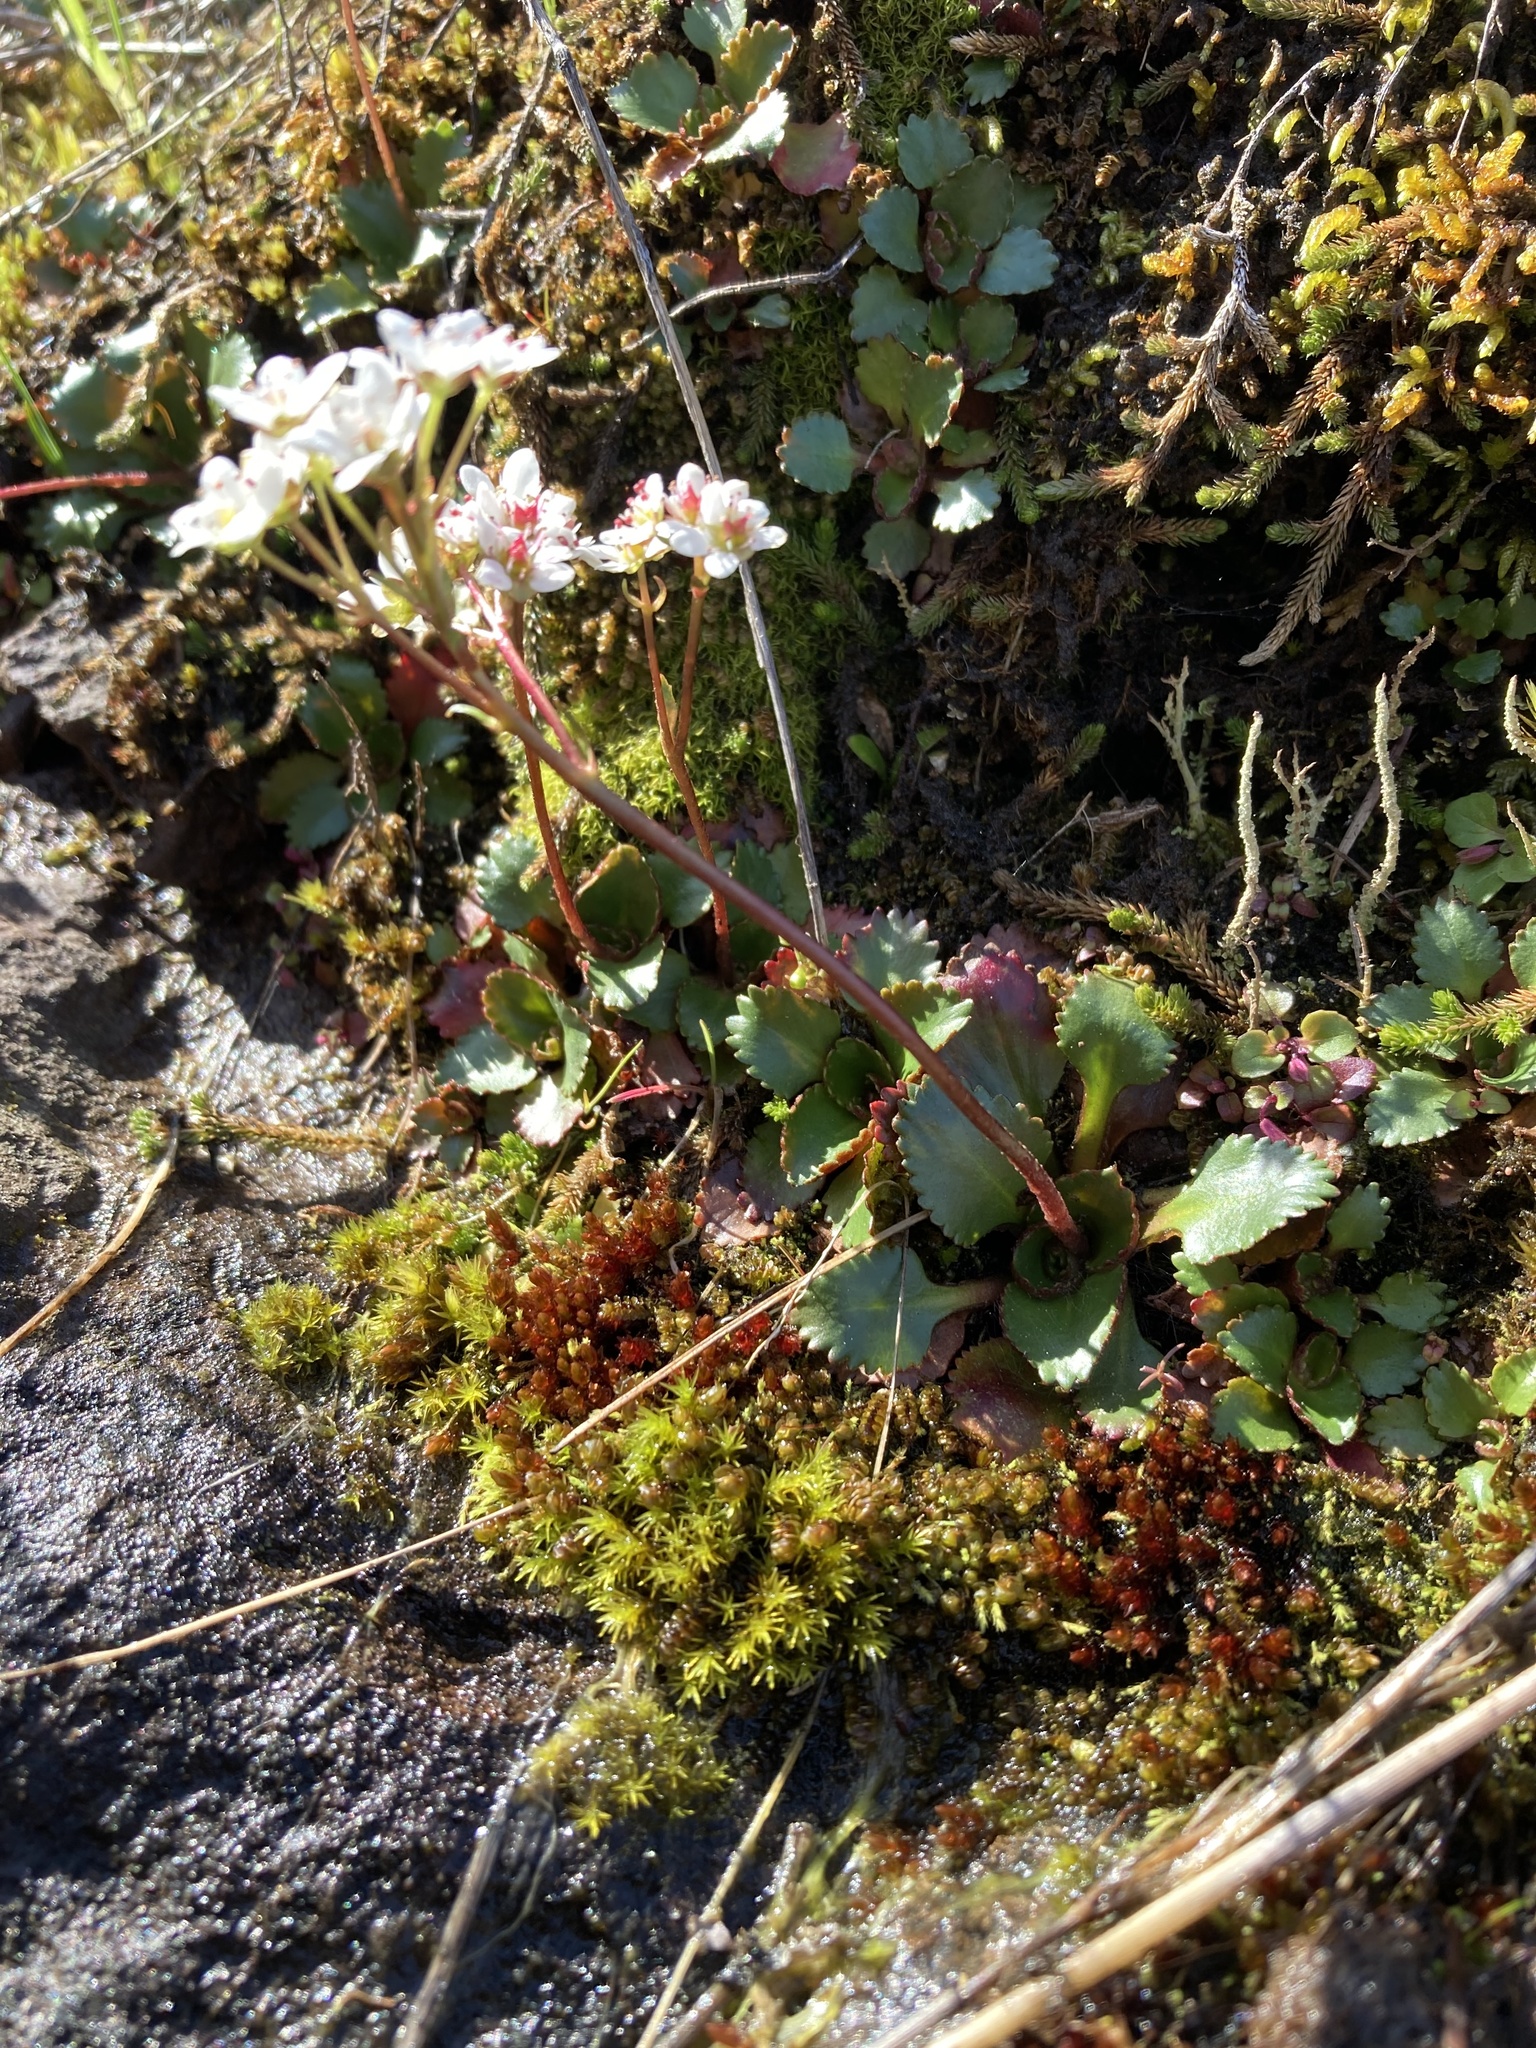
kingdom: Plantae
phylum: Tracheophyta
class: Magnoliopsida
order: Saxifragales
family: Saxifragaceae
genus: Micranthes
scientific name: Micranthes rufidula
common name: Rustyhair saxifrage
